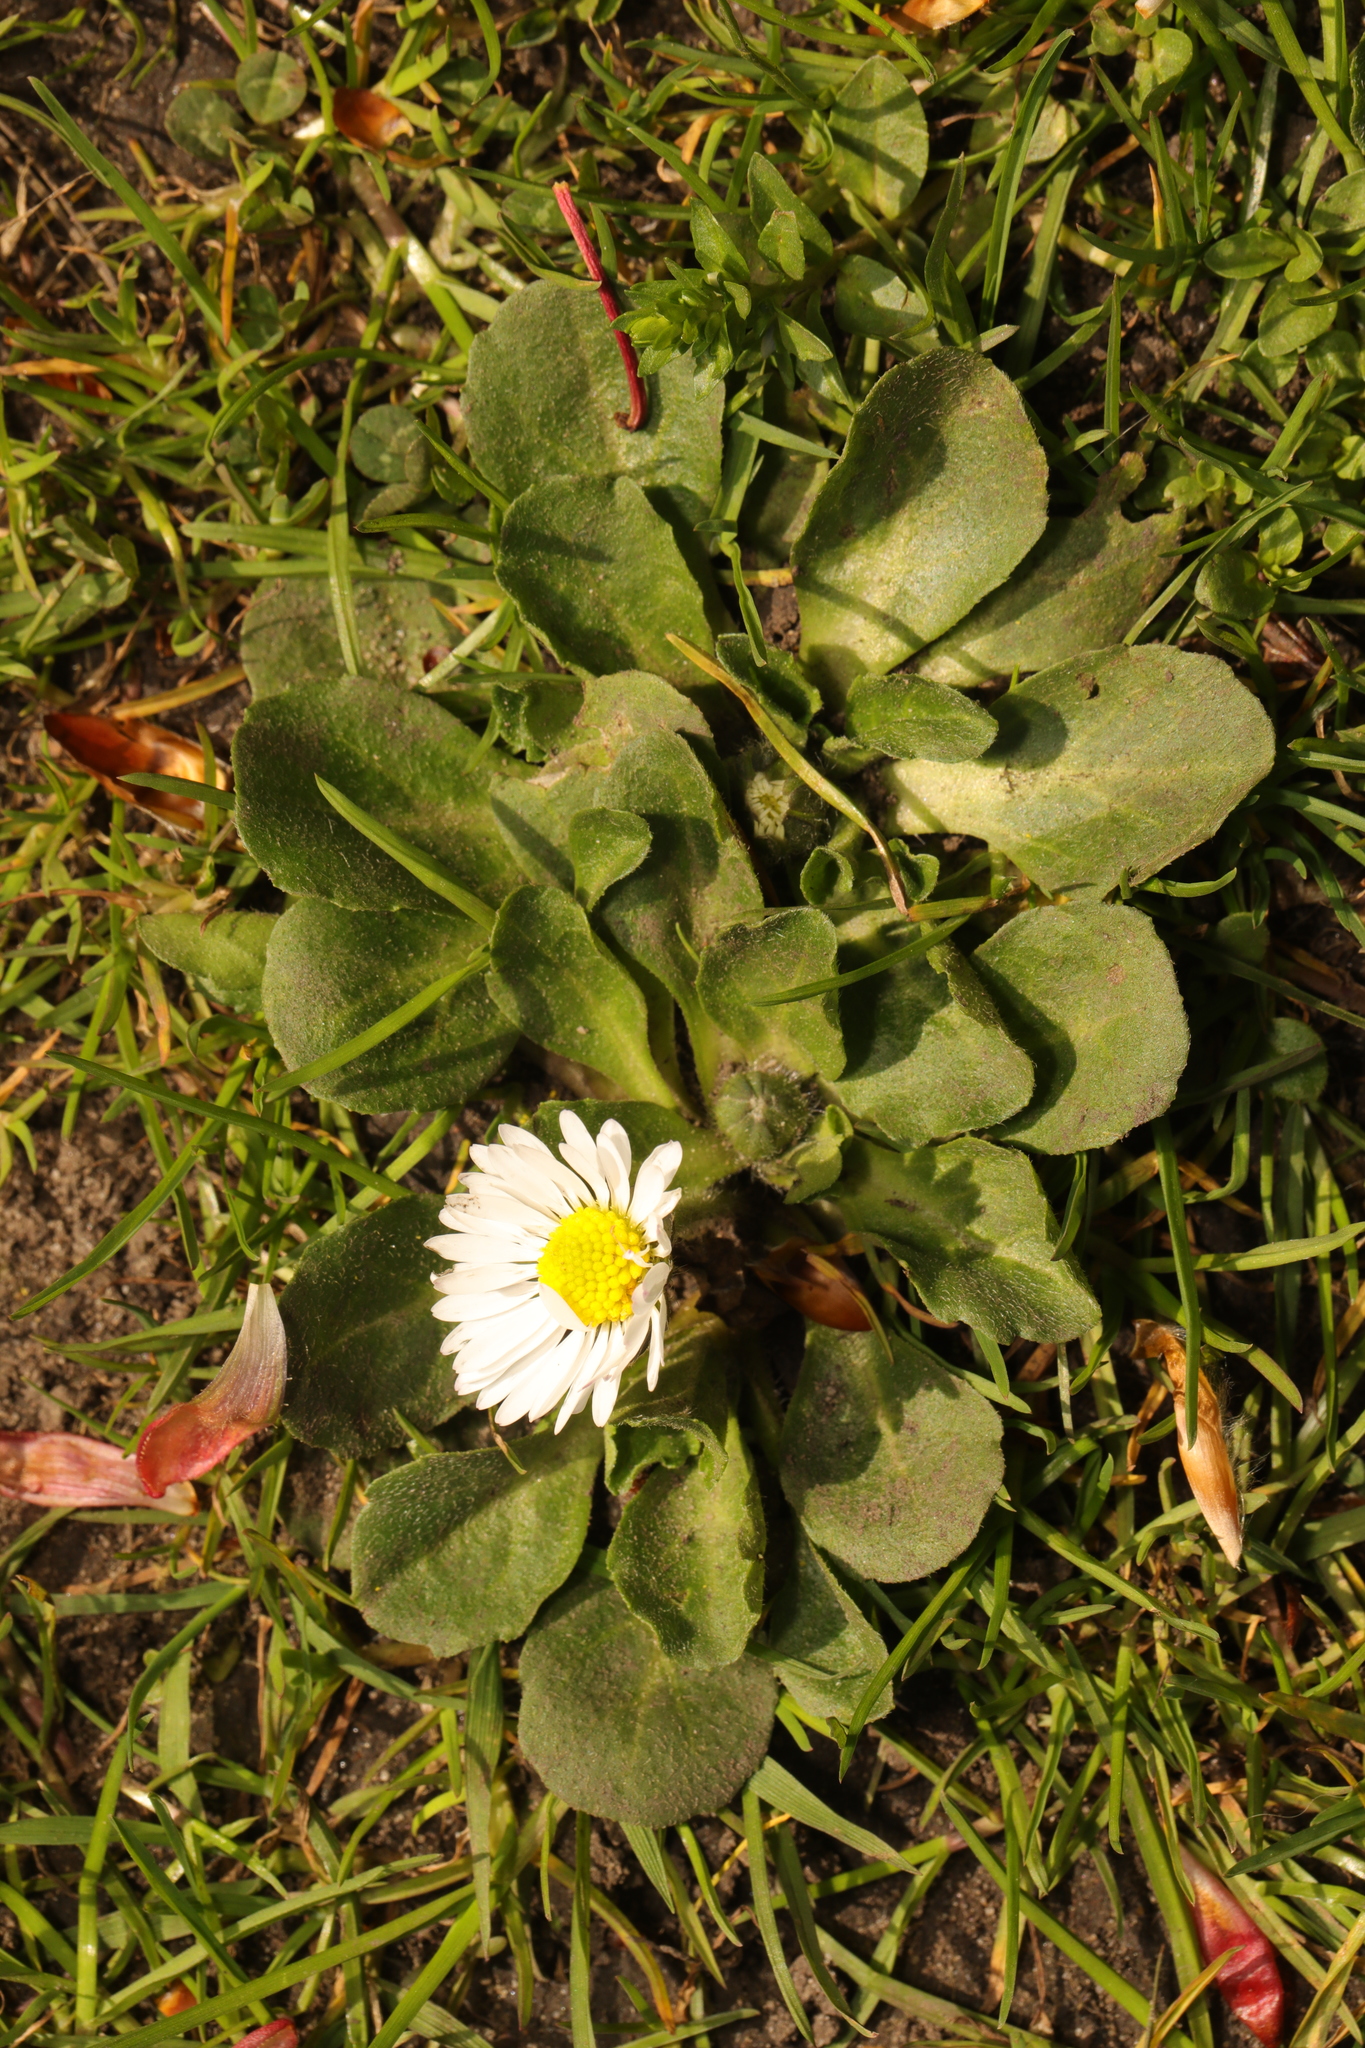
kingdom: Plantae
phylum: Tracheophyta
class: Magnoliopsida
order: Asterales
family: Asteraceae
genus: Bellis
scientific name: Bellis perennis
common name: Lawndaisy
